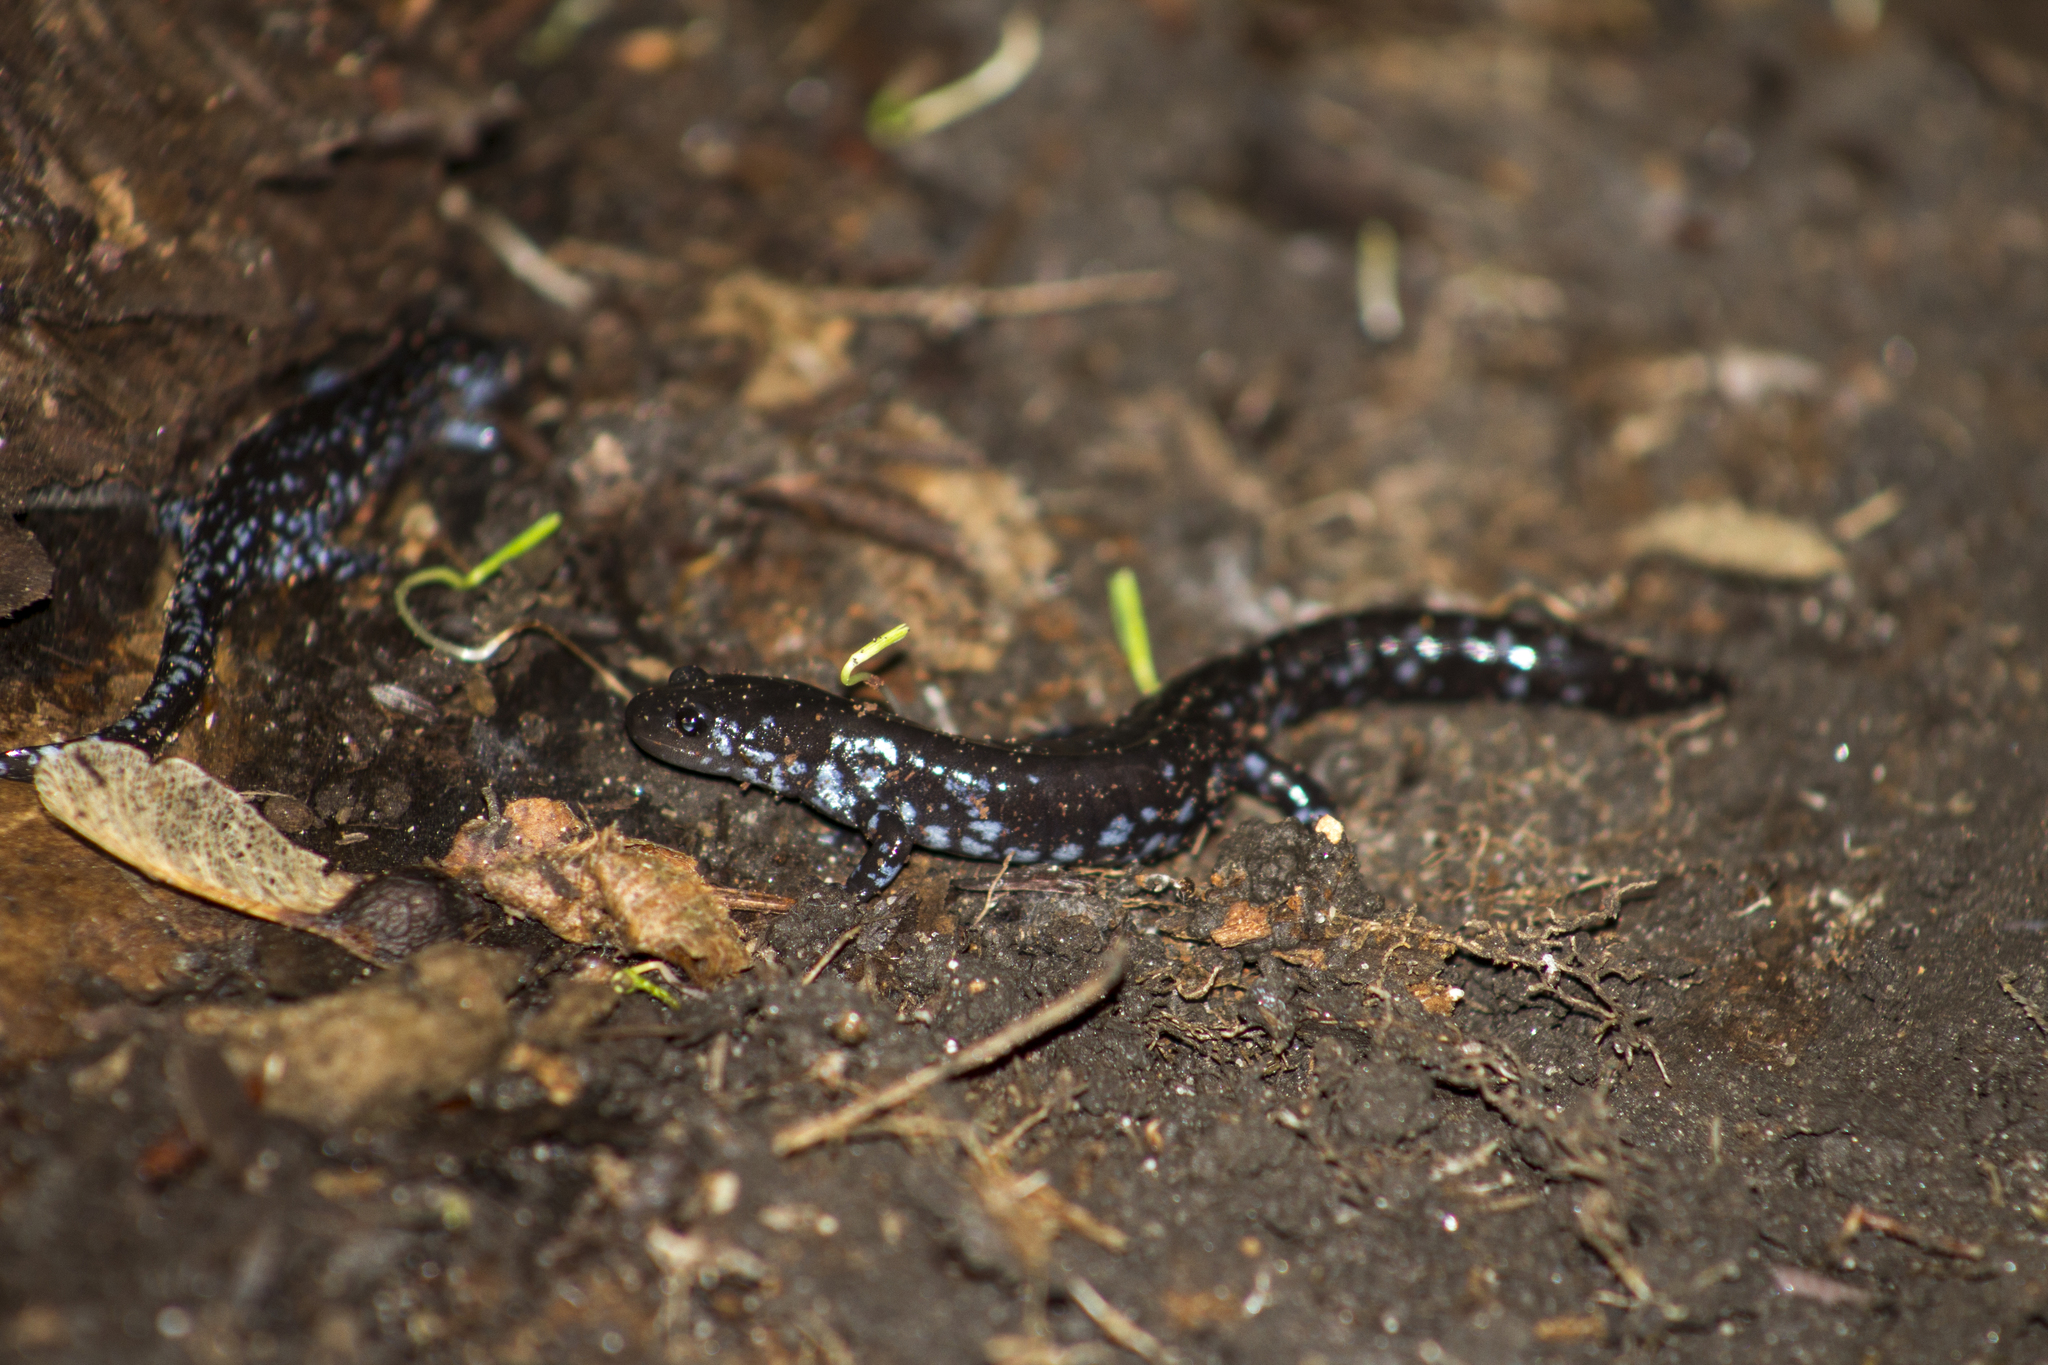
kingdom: Animalia
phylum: Chordata
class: Amphibia
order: Caudata
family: Ambystomatidae
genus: Ambystoma
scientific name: Ambystoma laterale
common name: Blue-spotted salamander
